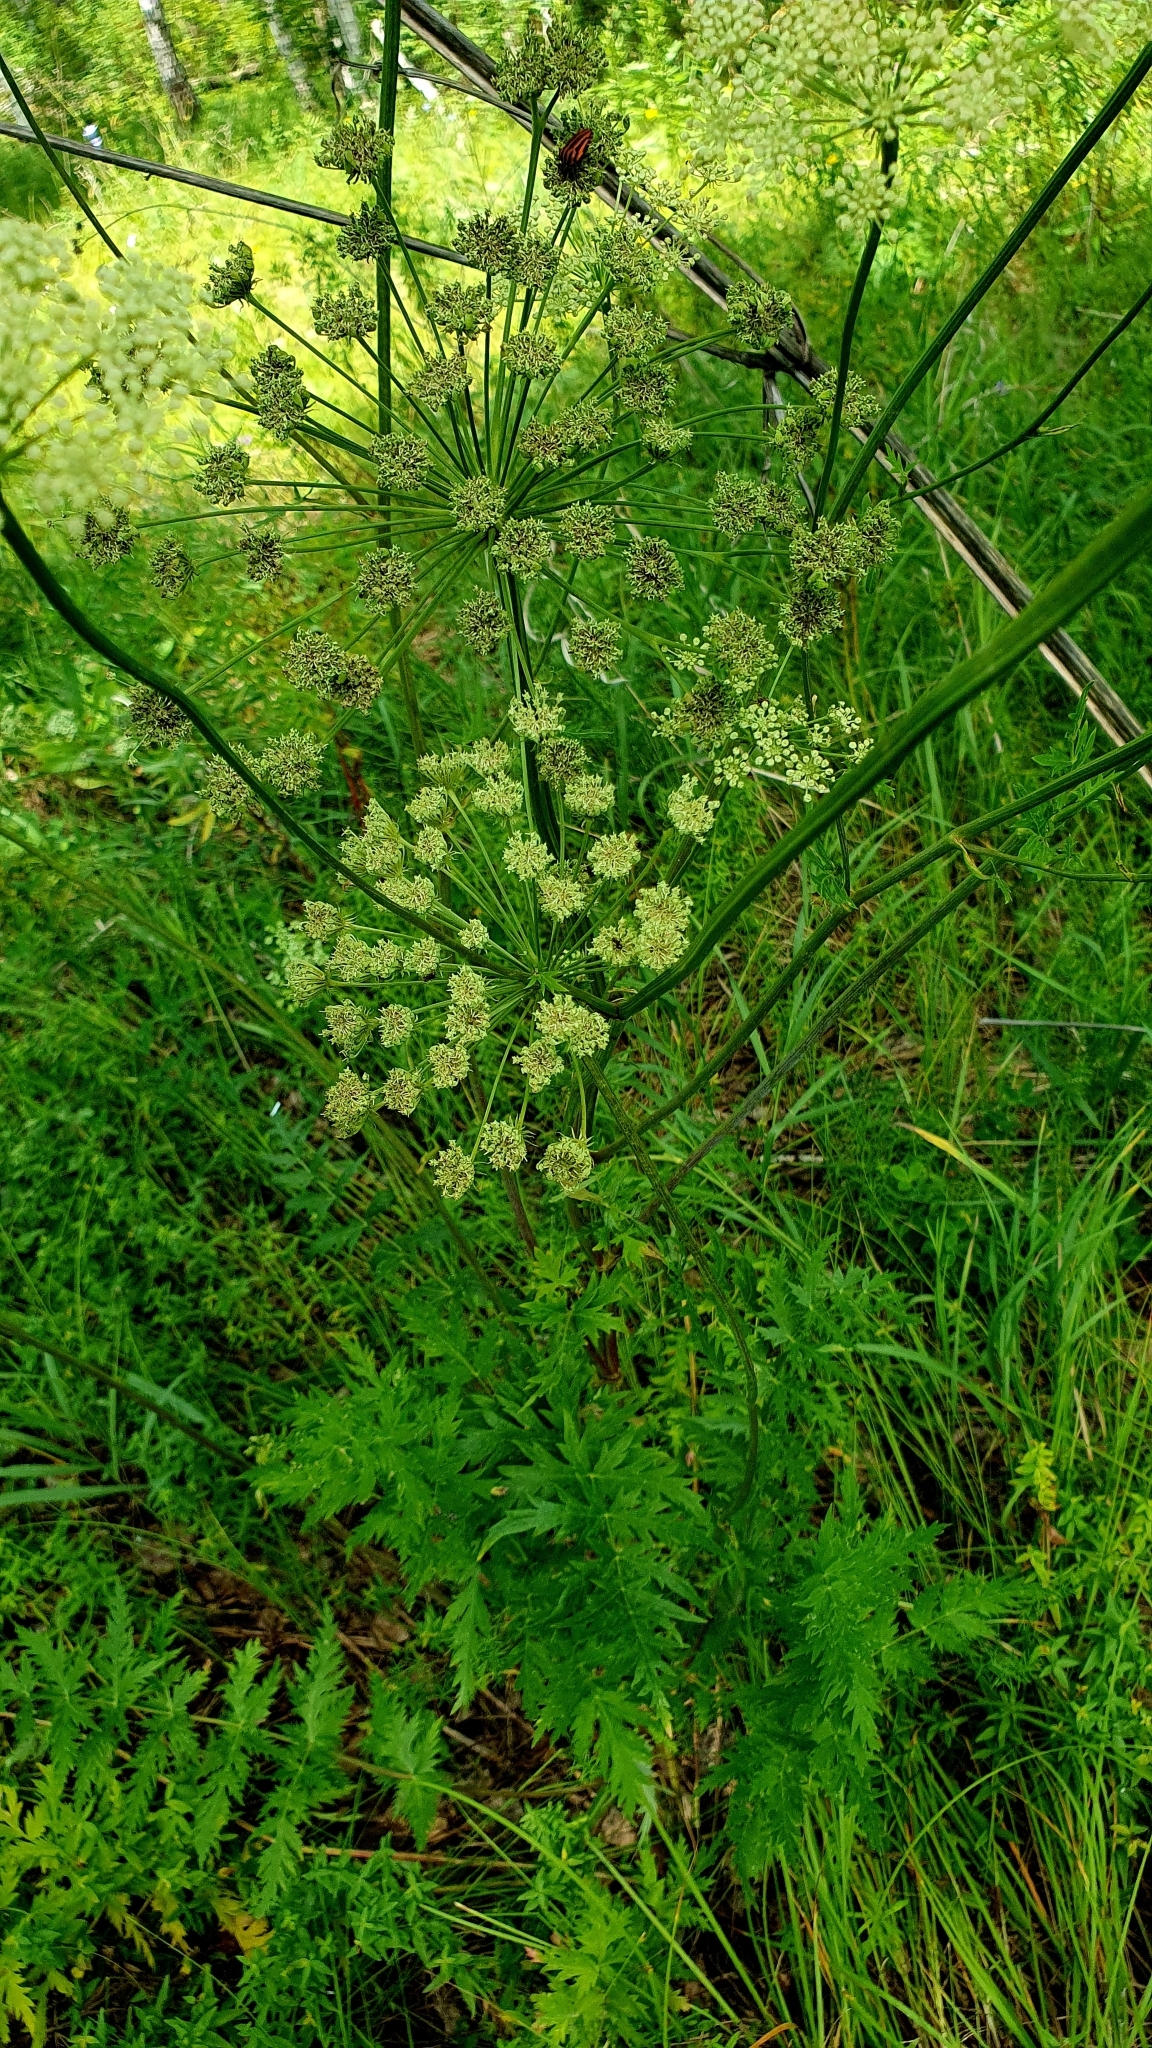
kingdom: Plantae
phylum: Tracheophyta
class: Magnoliopsida
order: Apiales
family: Apiaceae
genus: Seseli
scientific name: Seseli libanotis
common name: Mooncarrot
